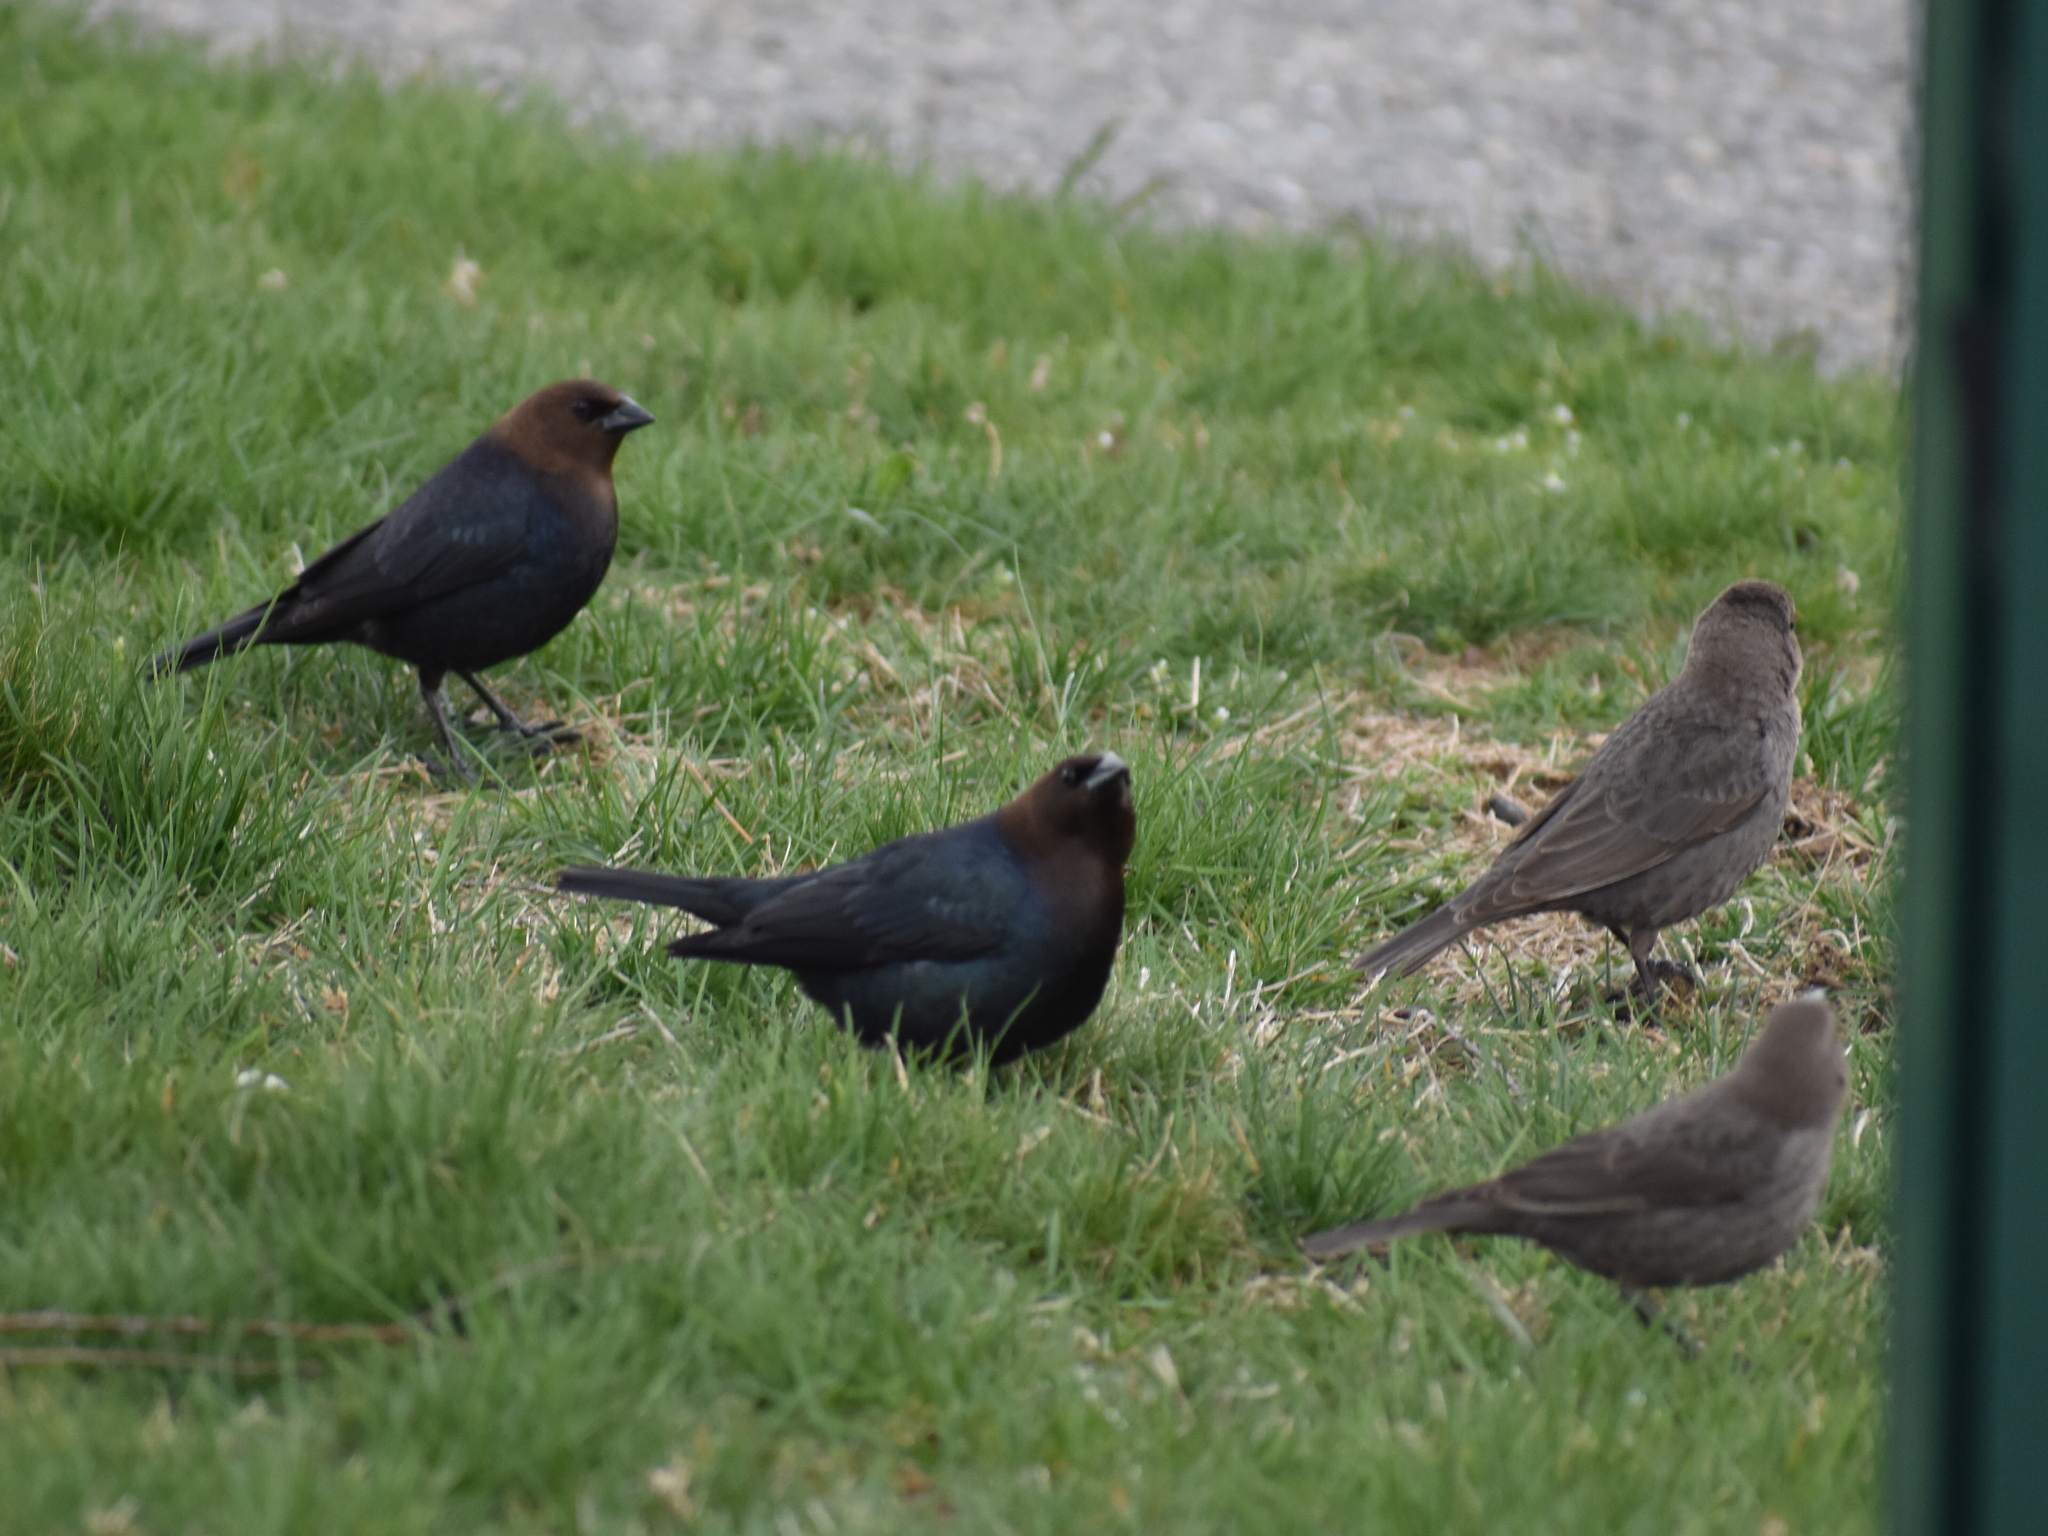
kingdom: Animalia
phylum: Chordata
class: Aves
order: Passeriformes
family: Icteridae
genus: Molothrus
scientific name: Molothrus ater
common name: Brown-headed cowbird
